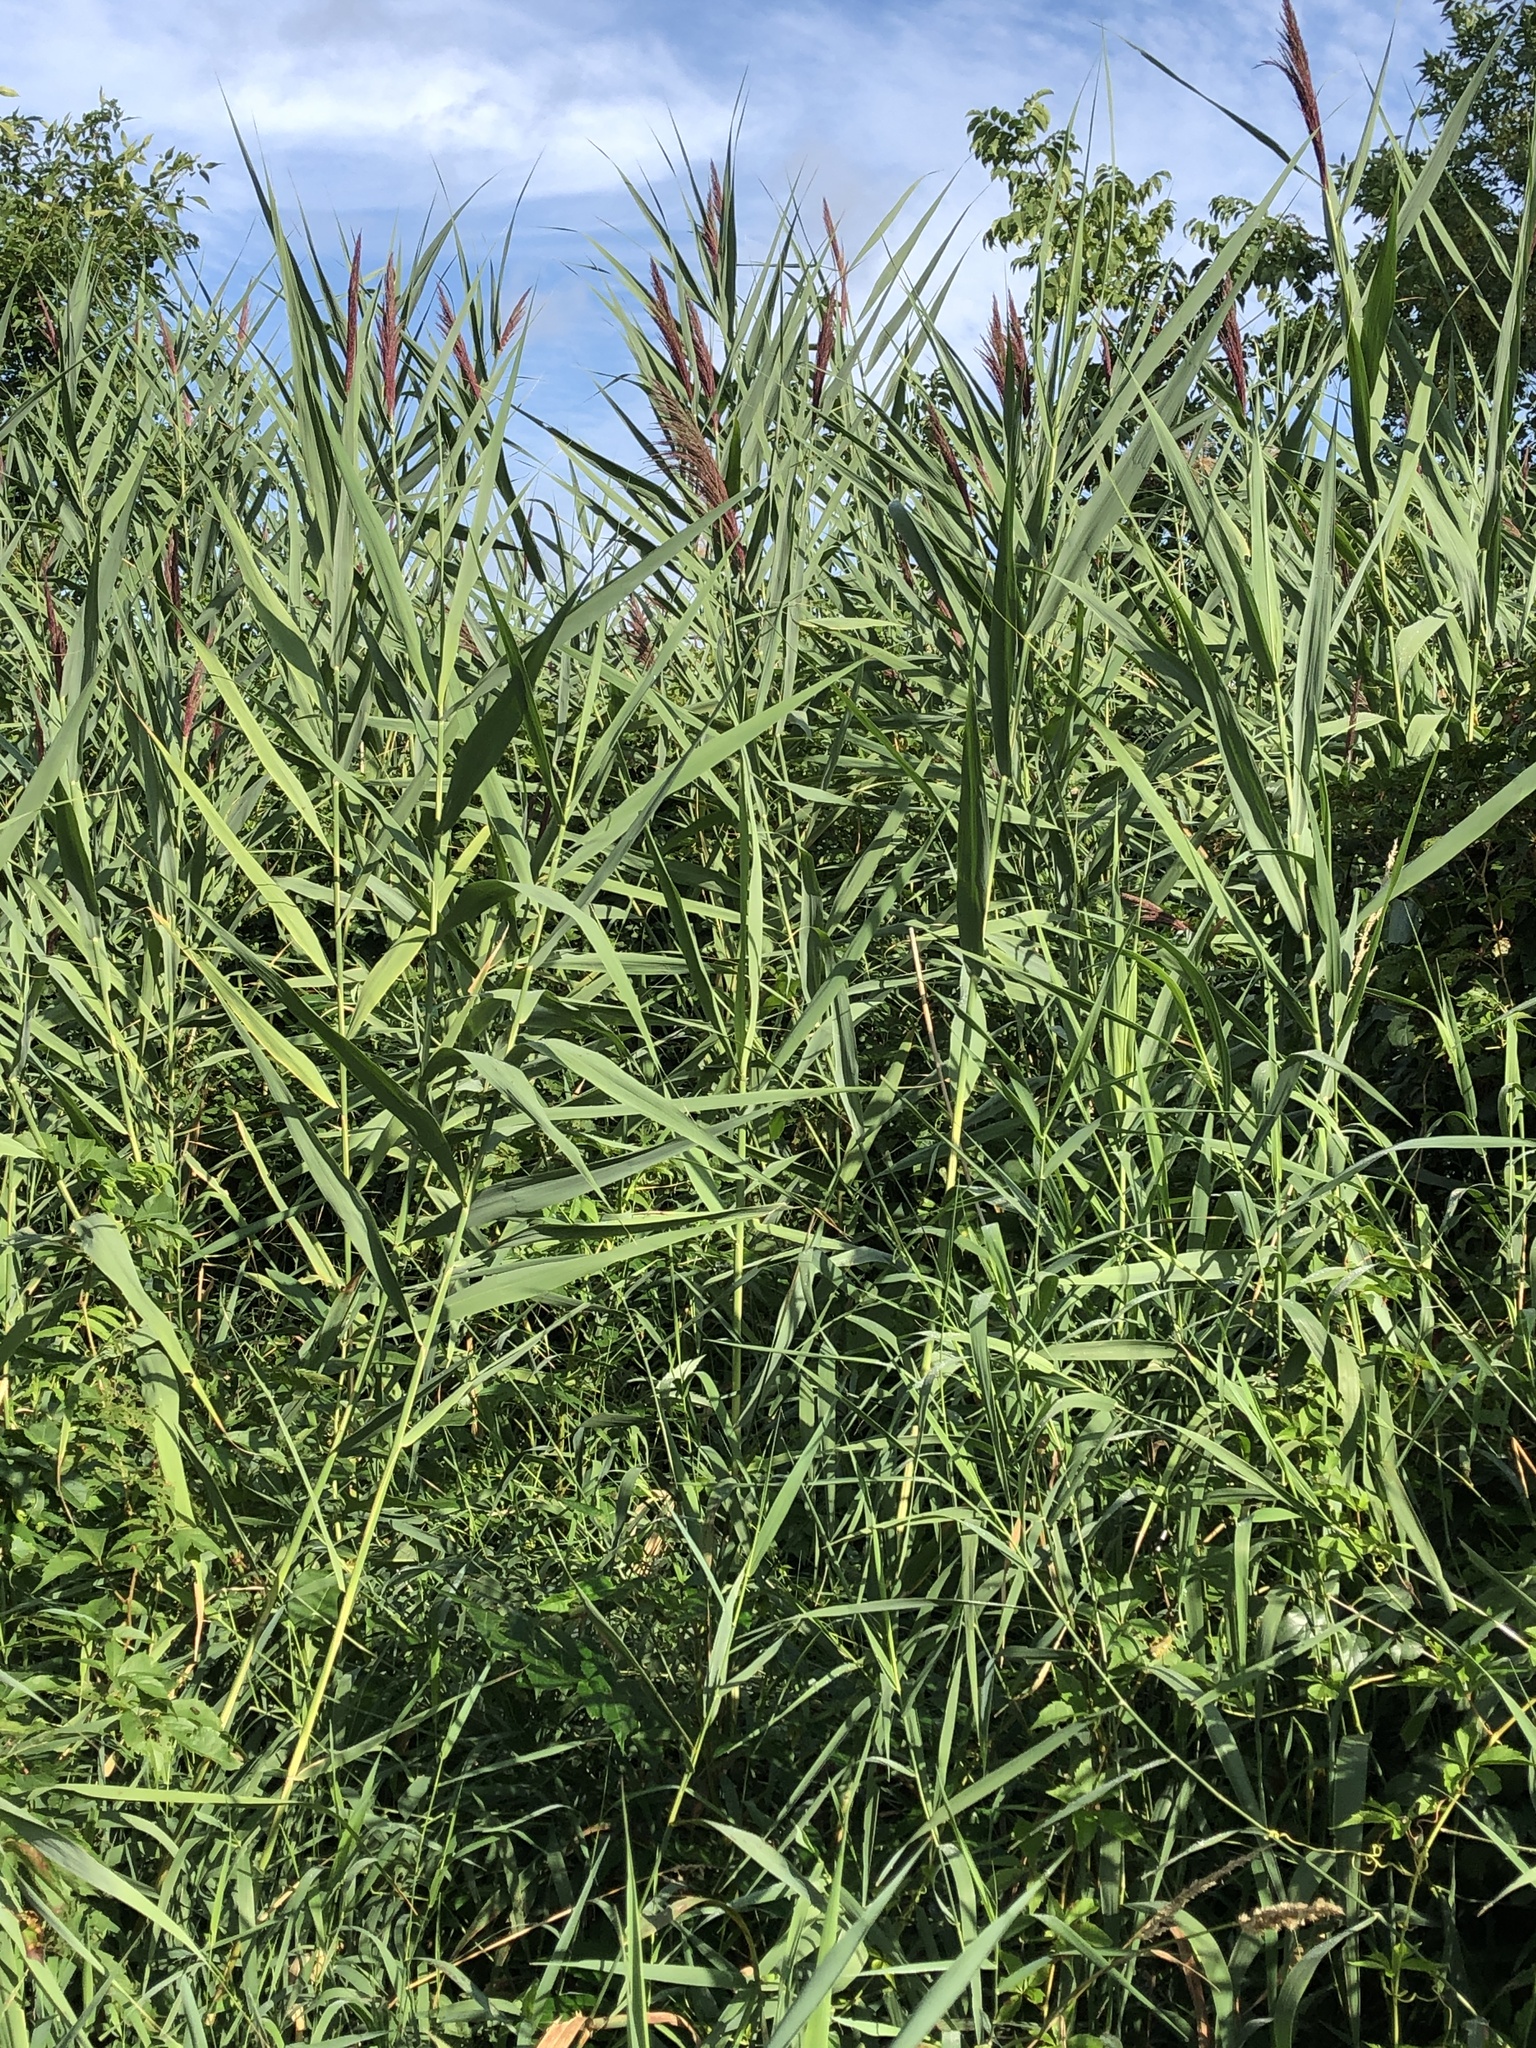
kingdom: Plantae
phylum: Tracheophyta
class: Liliopsida
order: Poales
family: Poaceae
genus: Phragmites
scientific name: Phragmites australis
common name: Common reed
